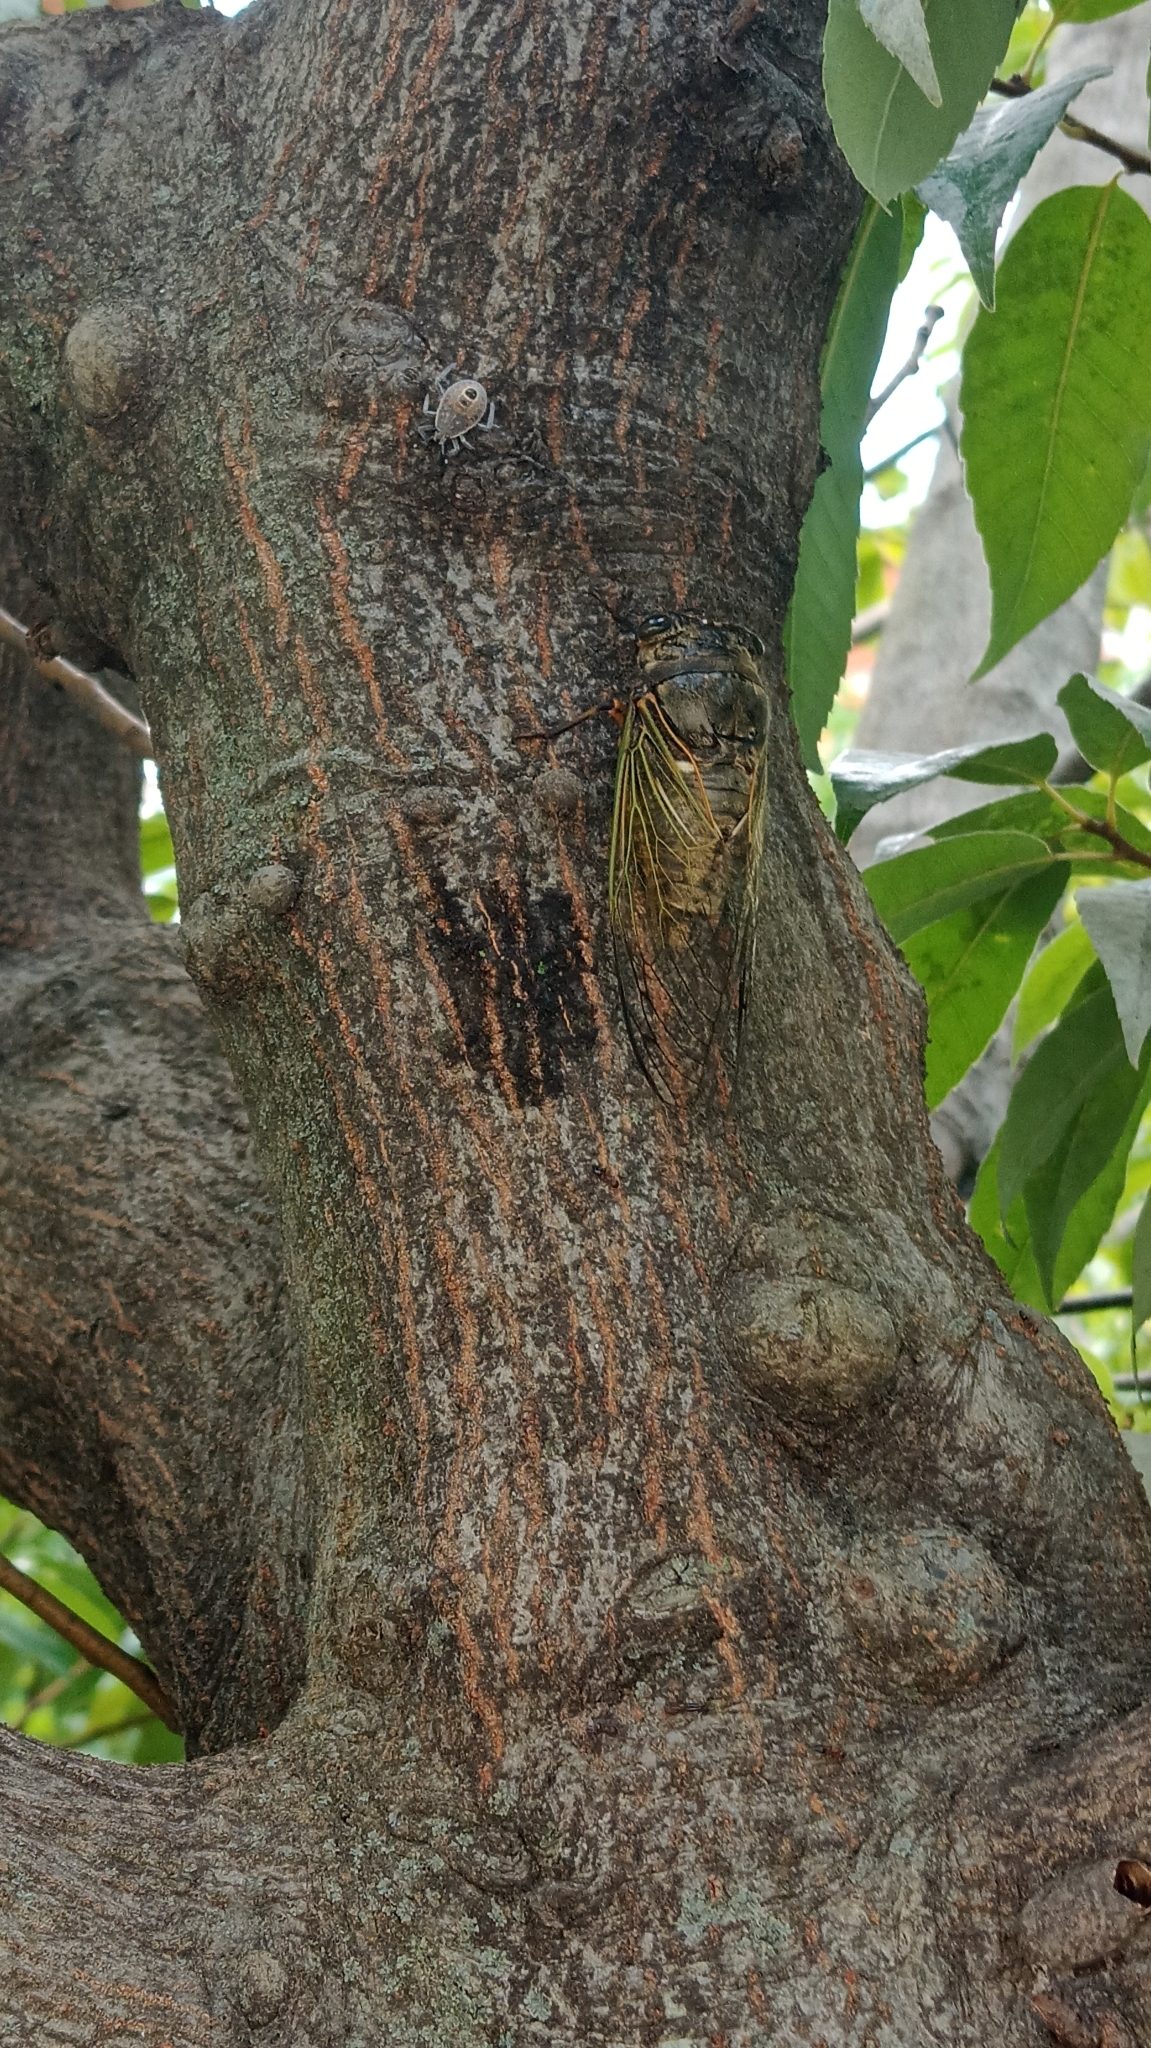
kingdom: Animalia
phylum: Arthropoda
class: Insecta
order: Hemiptera
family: Cicadidae
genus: Cryptotympana
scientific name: Cryptotympana facialis
